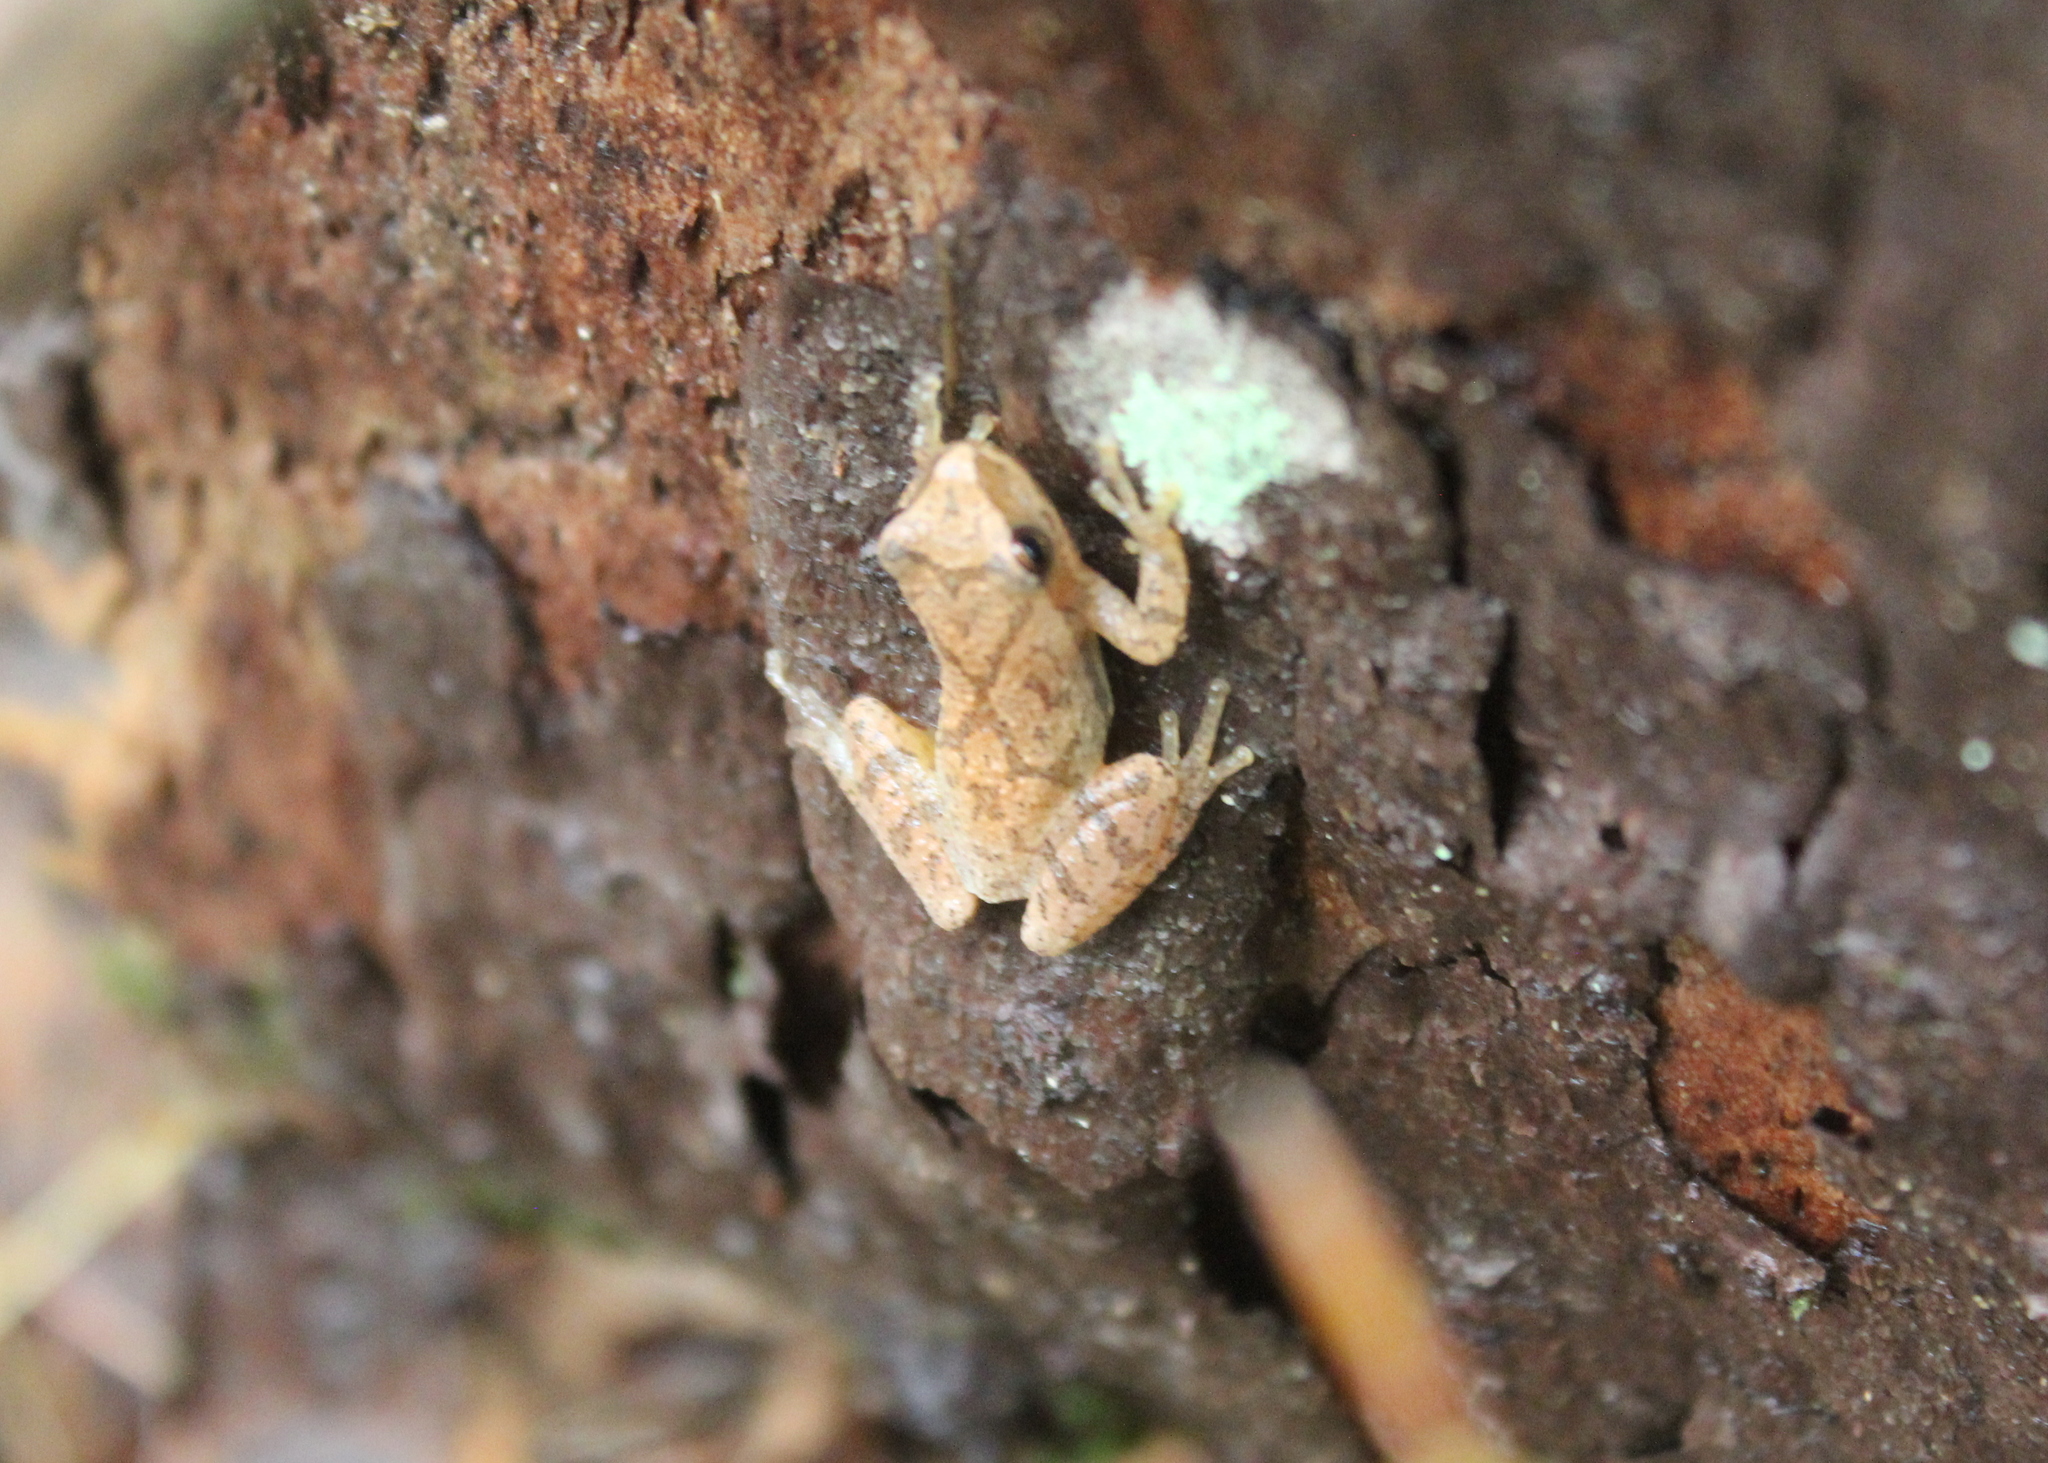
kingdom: Animalia
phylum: Chordata
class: Amphibia
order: Anura
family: Hylidae
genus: Pseudacris
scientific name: Pseudacris crucifer
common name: Spring peeper
